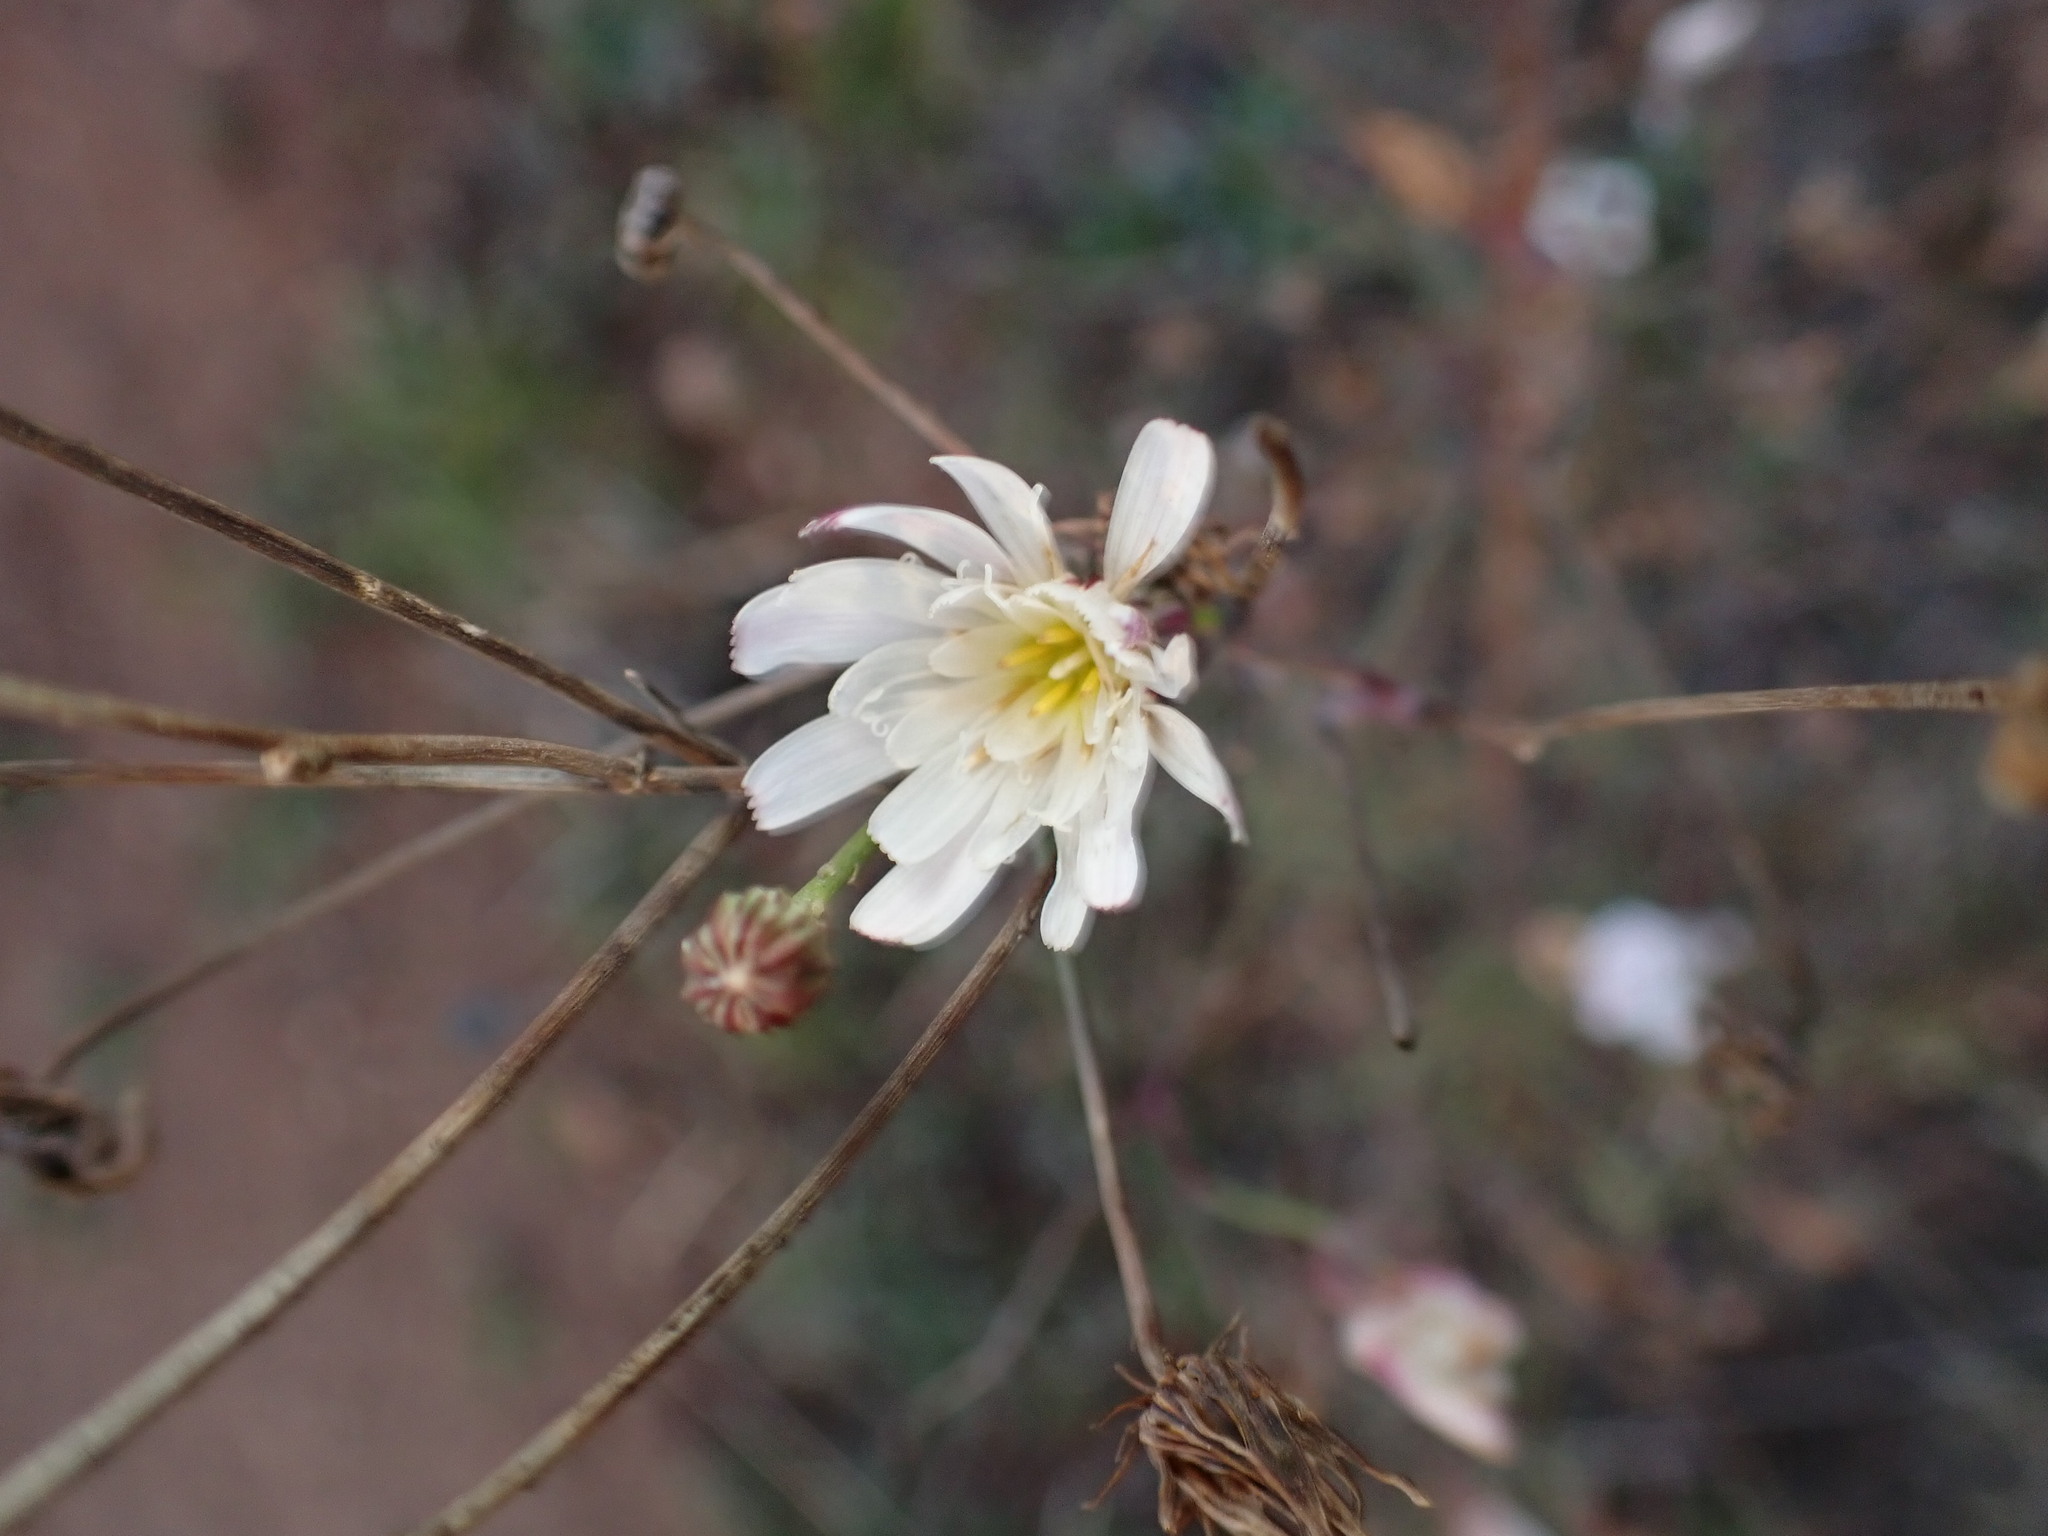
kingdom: Plantae
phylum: Tracheophyta
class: Magnoliopsida
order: Asterales
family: Asteraceae
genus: Malacothrix
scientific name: Malacothrix saxatilis
